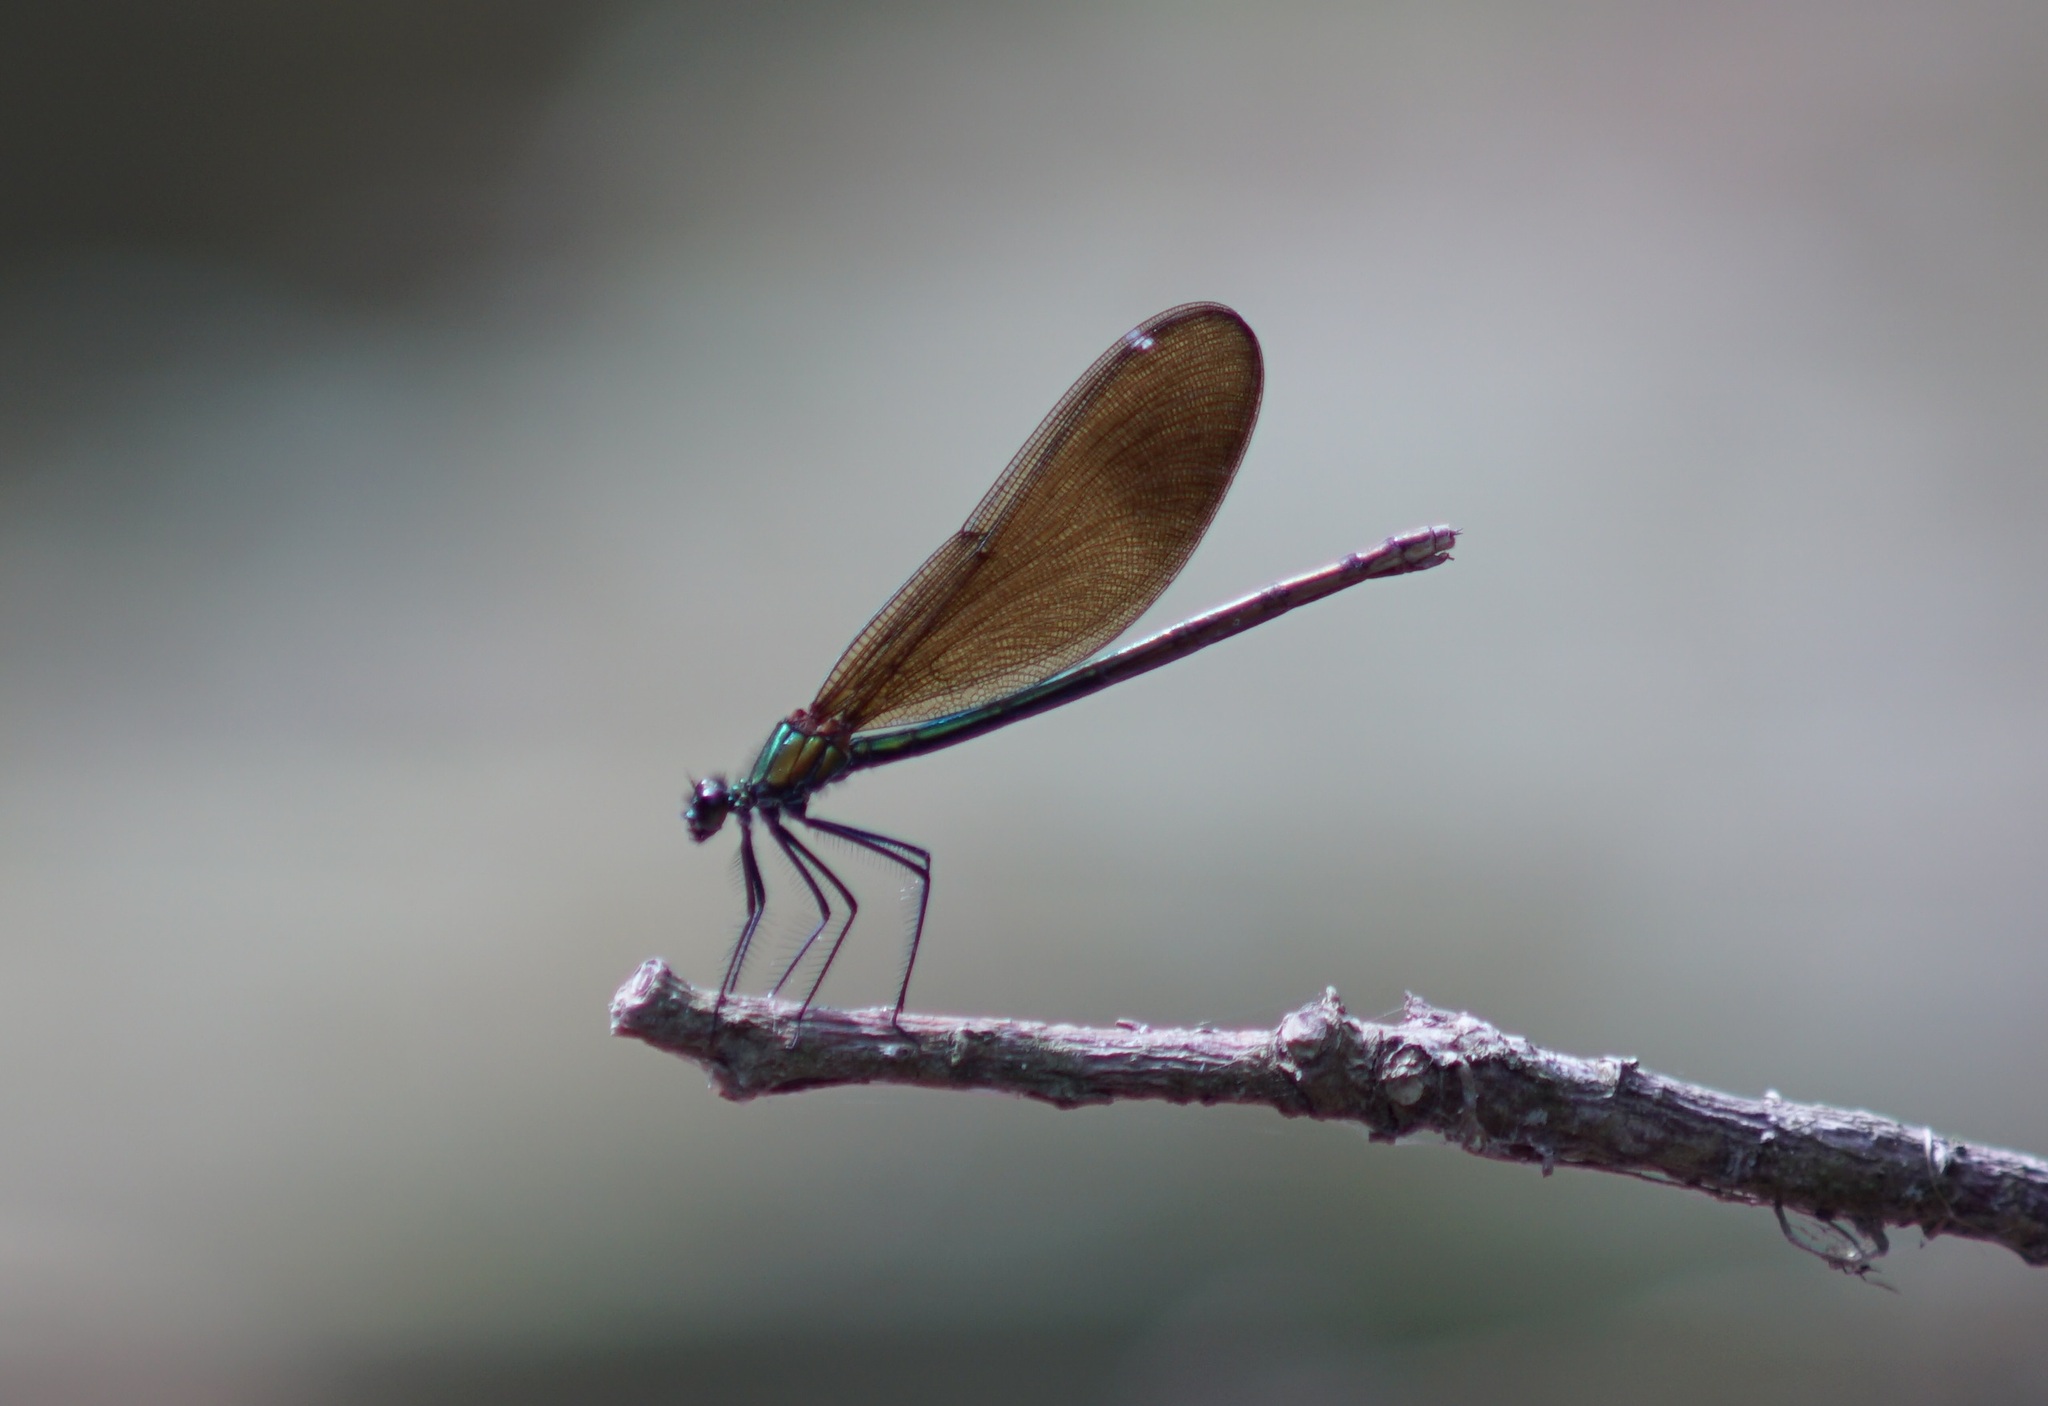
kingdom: Animalia
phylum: Arthropoda
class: Insecta
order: Odonata
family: Calopterygidae
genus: Calopteryx
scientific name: Calopteryx virgo
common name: Beautiful demoiselle
